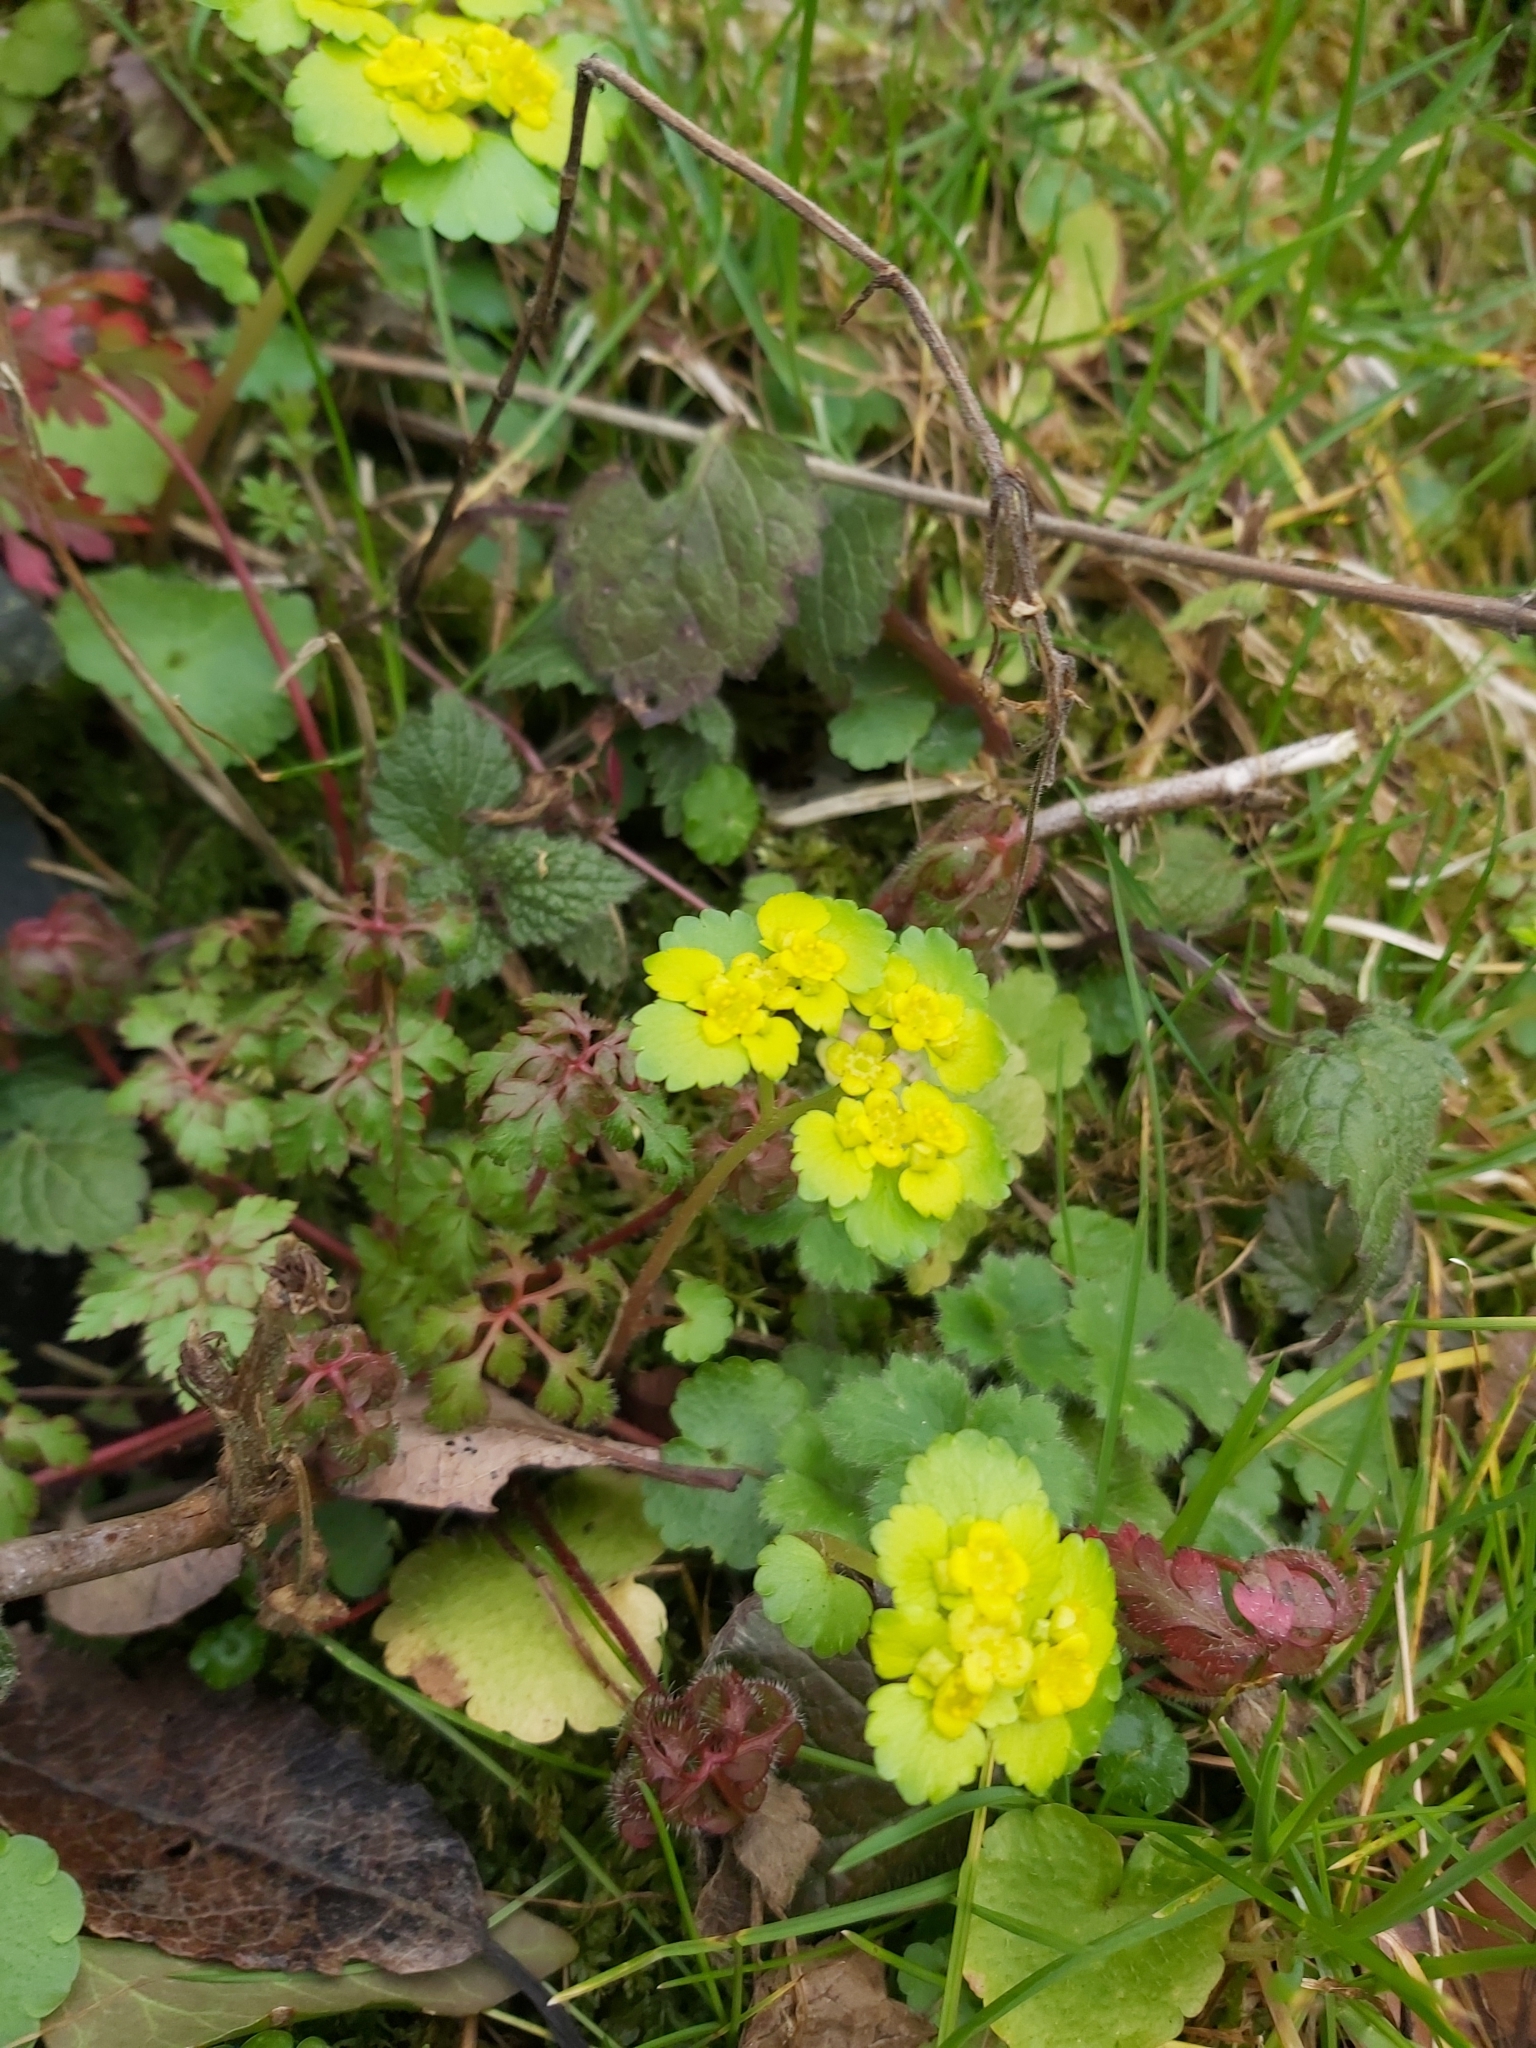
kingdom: Plantae
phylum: Tracheophyta
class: Magnoliopsida
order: Saxifragales
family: Saxifragaceae
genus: Chrysosplenium
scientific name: Chrysosplenium alternifolium
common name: Alternate-leaved golden-saxifrage
